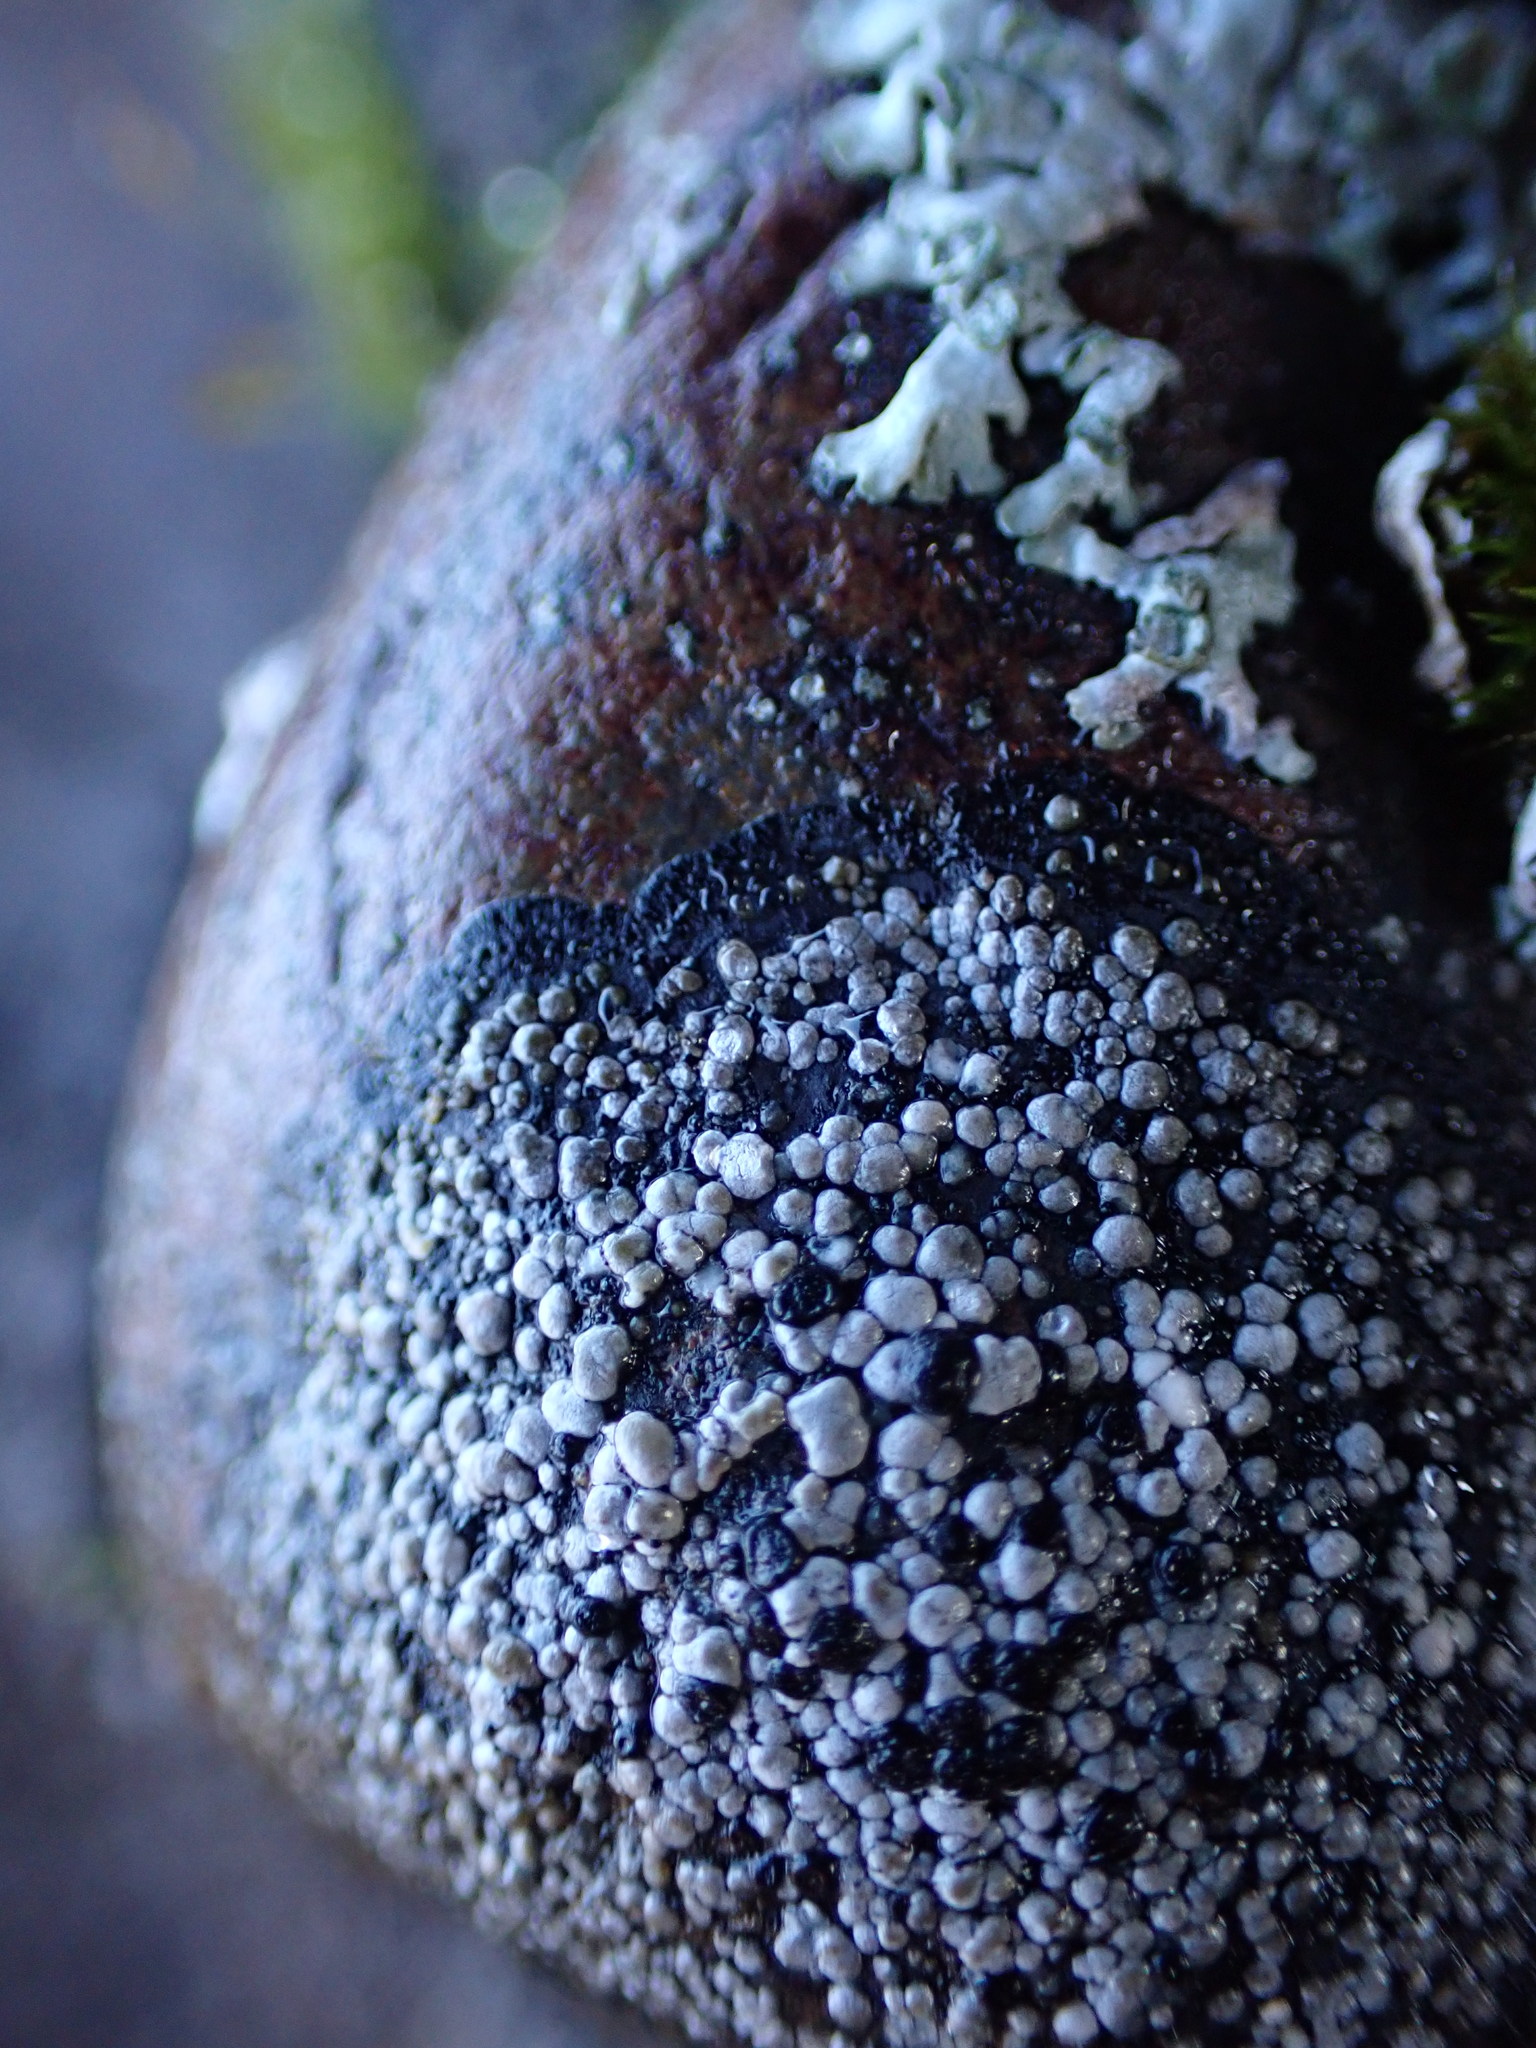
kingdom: Fungi
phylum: Ascomycota
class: Lecanoromycetes
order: Rhizocarpales
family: Rhizocarpaceae
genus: Rhizocarpon
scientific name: Rhizocarpon geminatum
